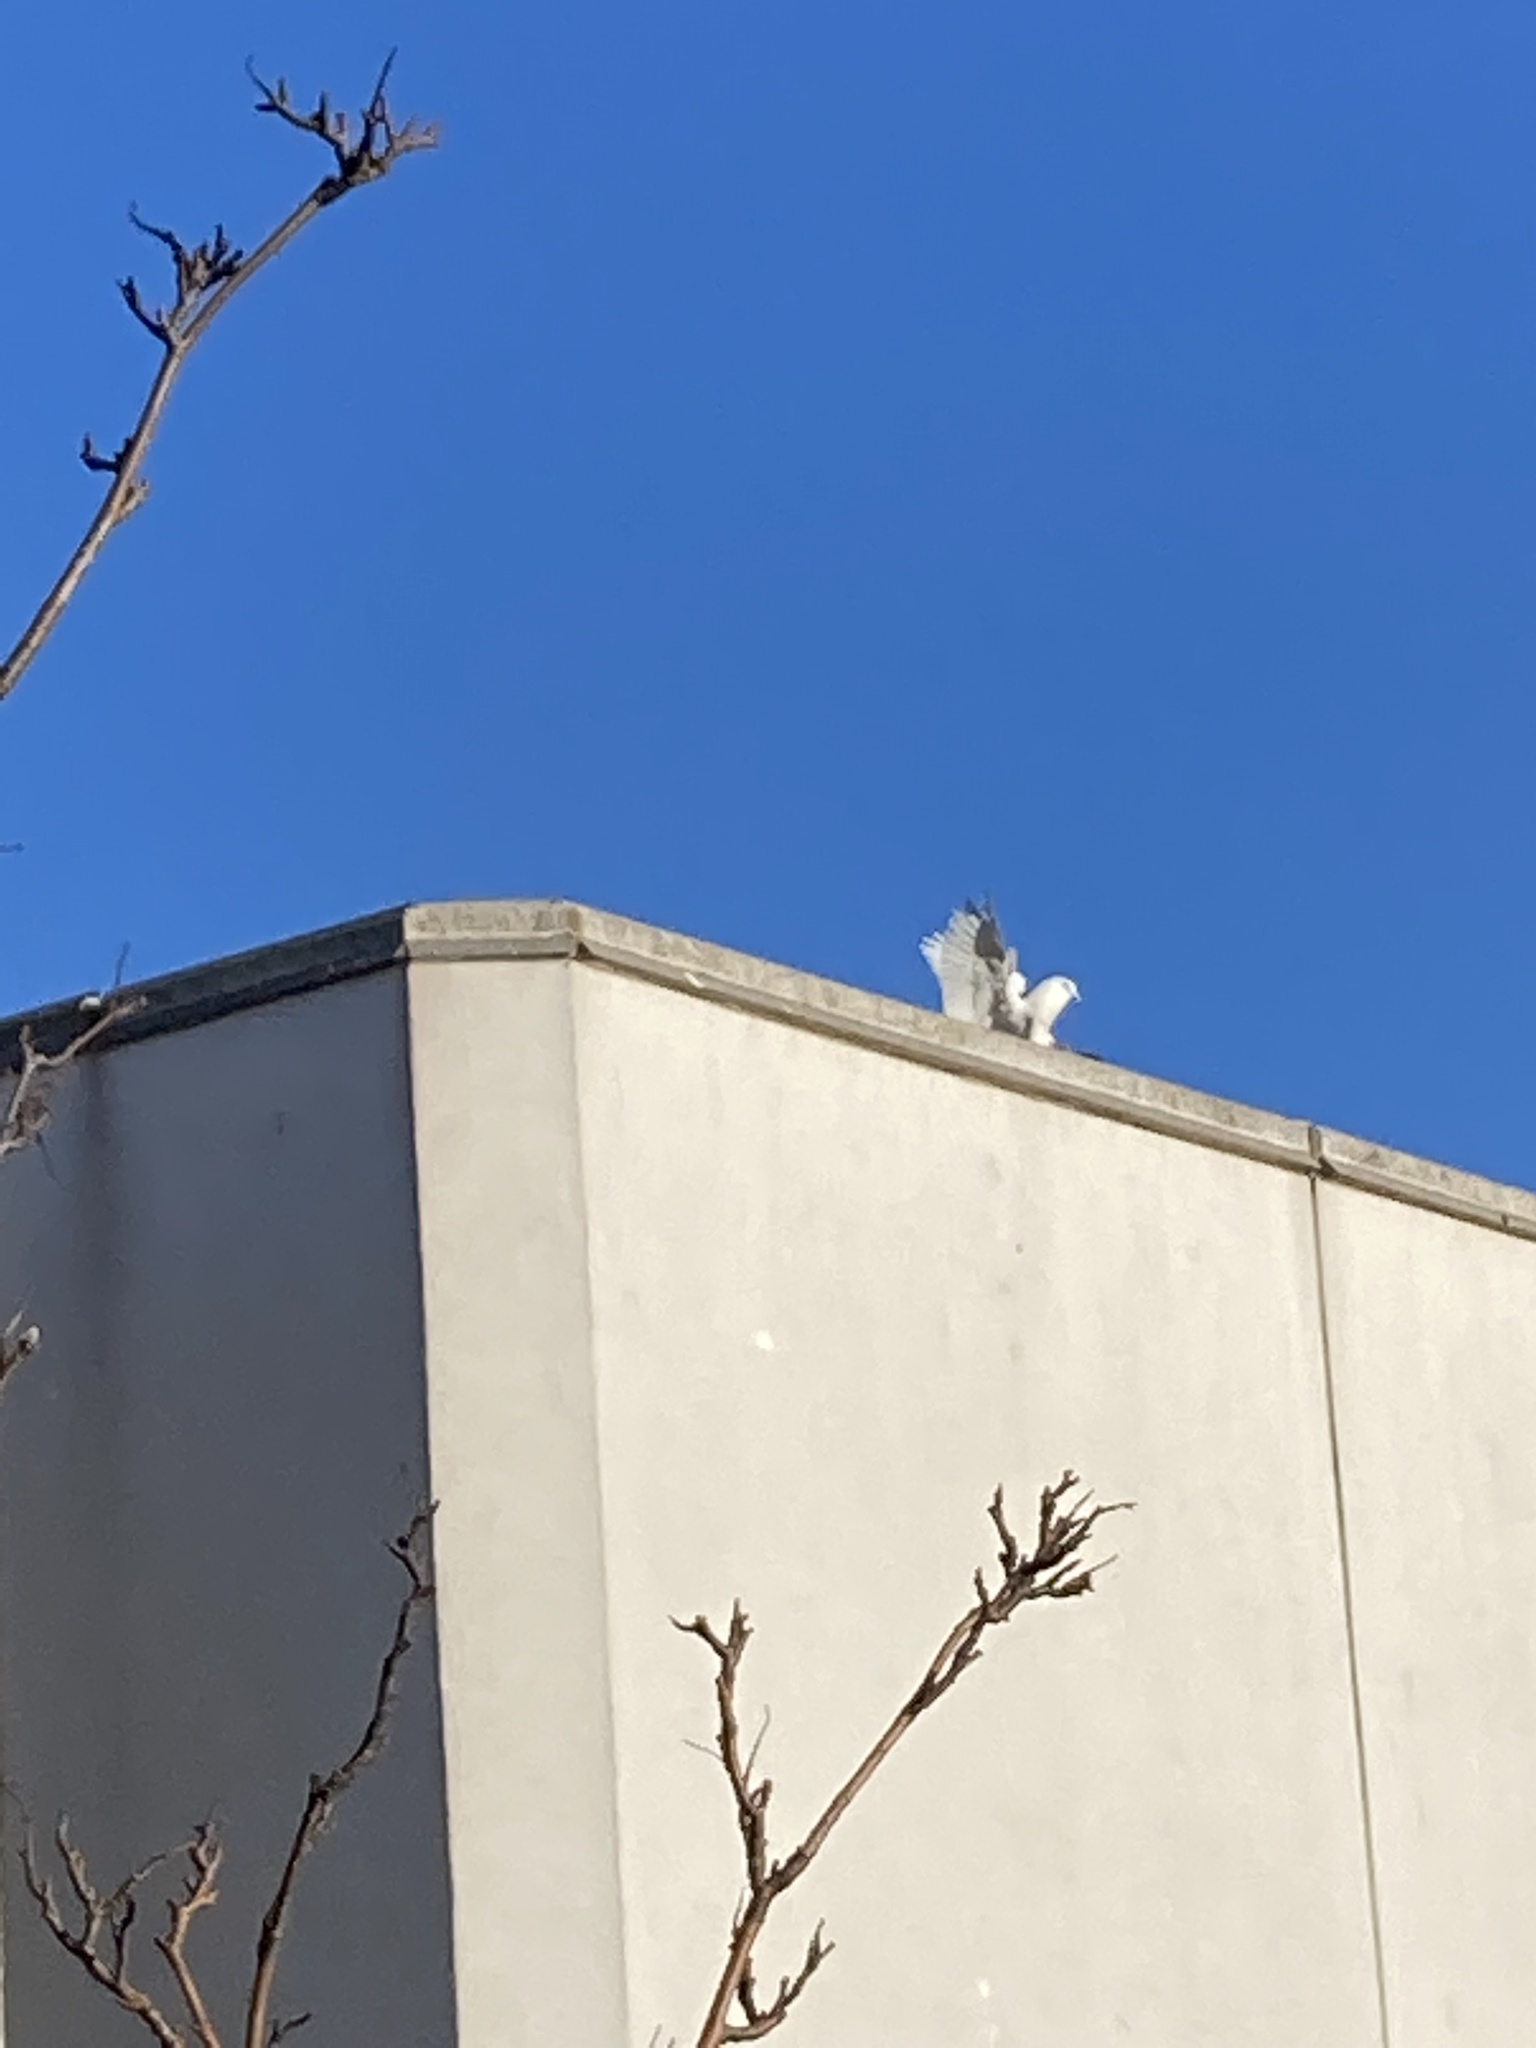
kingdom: Animalia
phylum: Chordata
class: Aves
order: Columbiformes
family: Columbidae
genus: Columba
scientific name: Columba livia
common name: Rock pigeon
